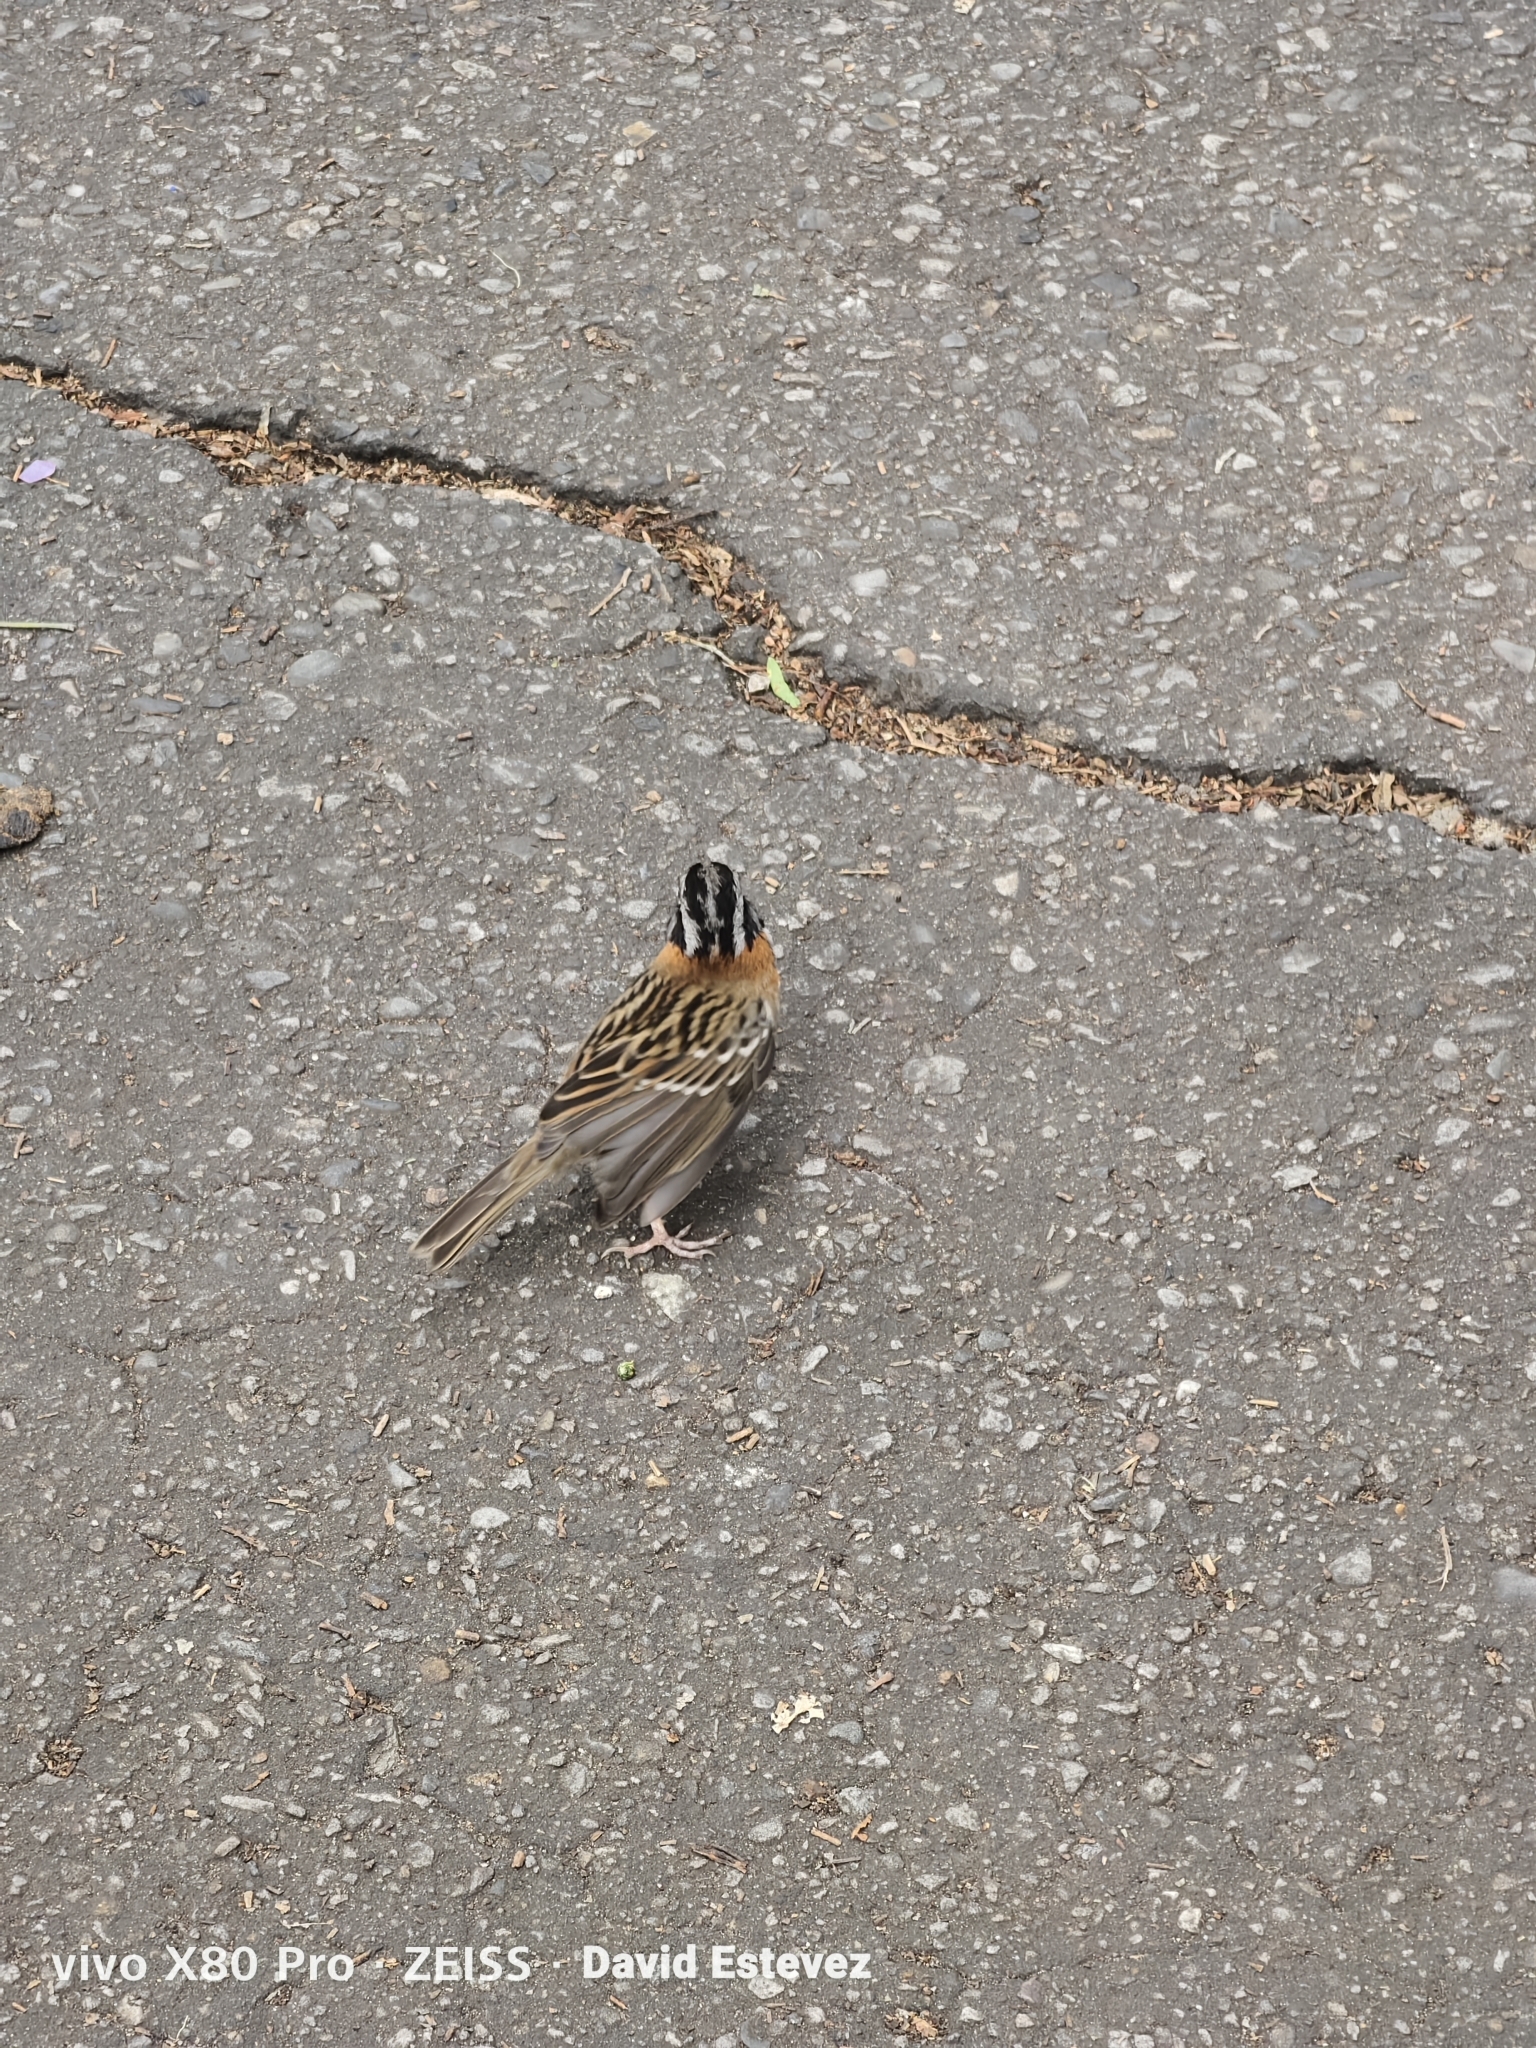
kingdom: Animalia
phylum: Chordata
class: Aves
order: Passeriformes
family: Passerellidae
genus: Zonotrichia
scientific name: Zonotrichia capensis
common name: Rufous-collared sparrow
